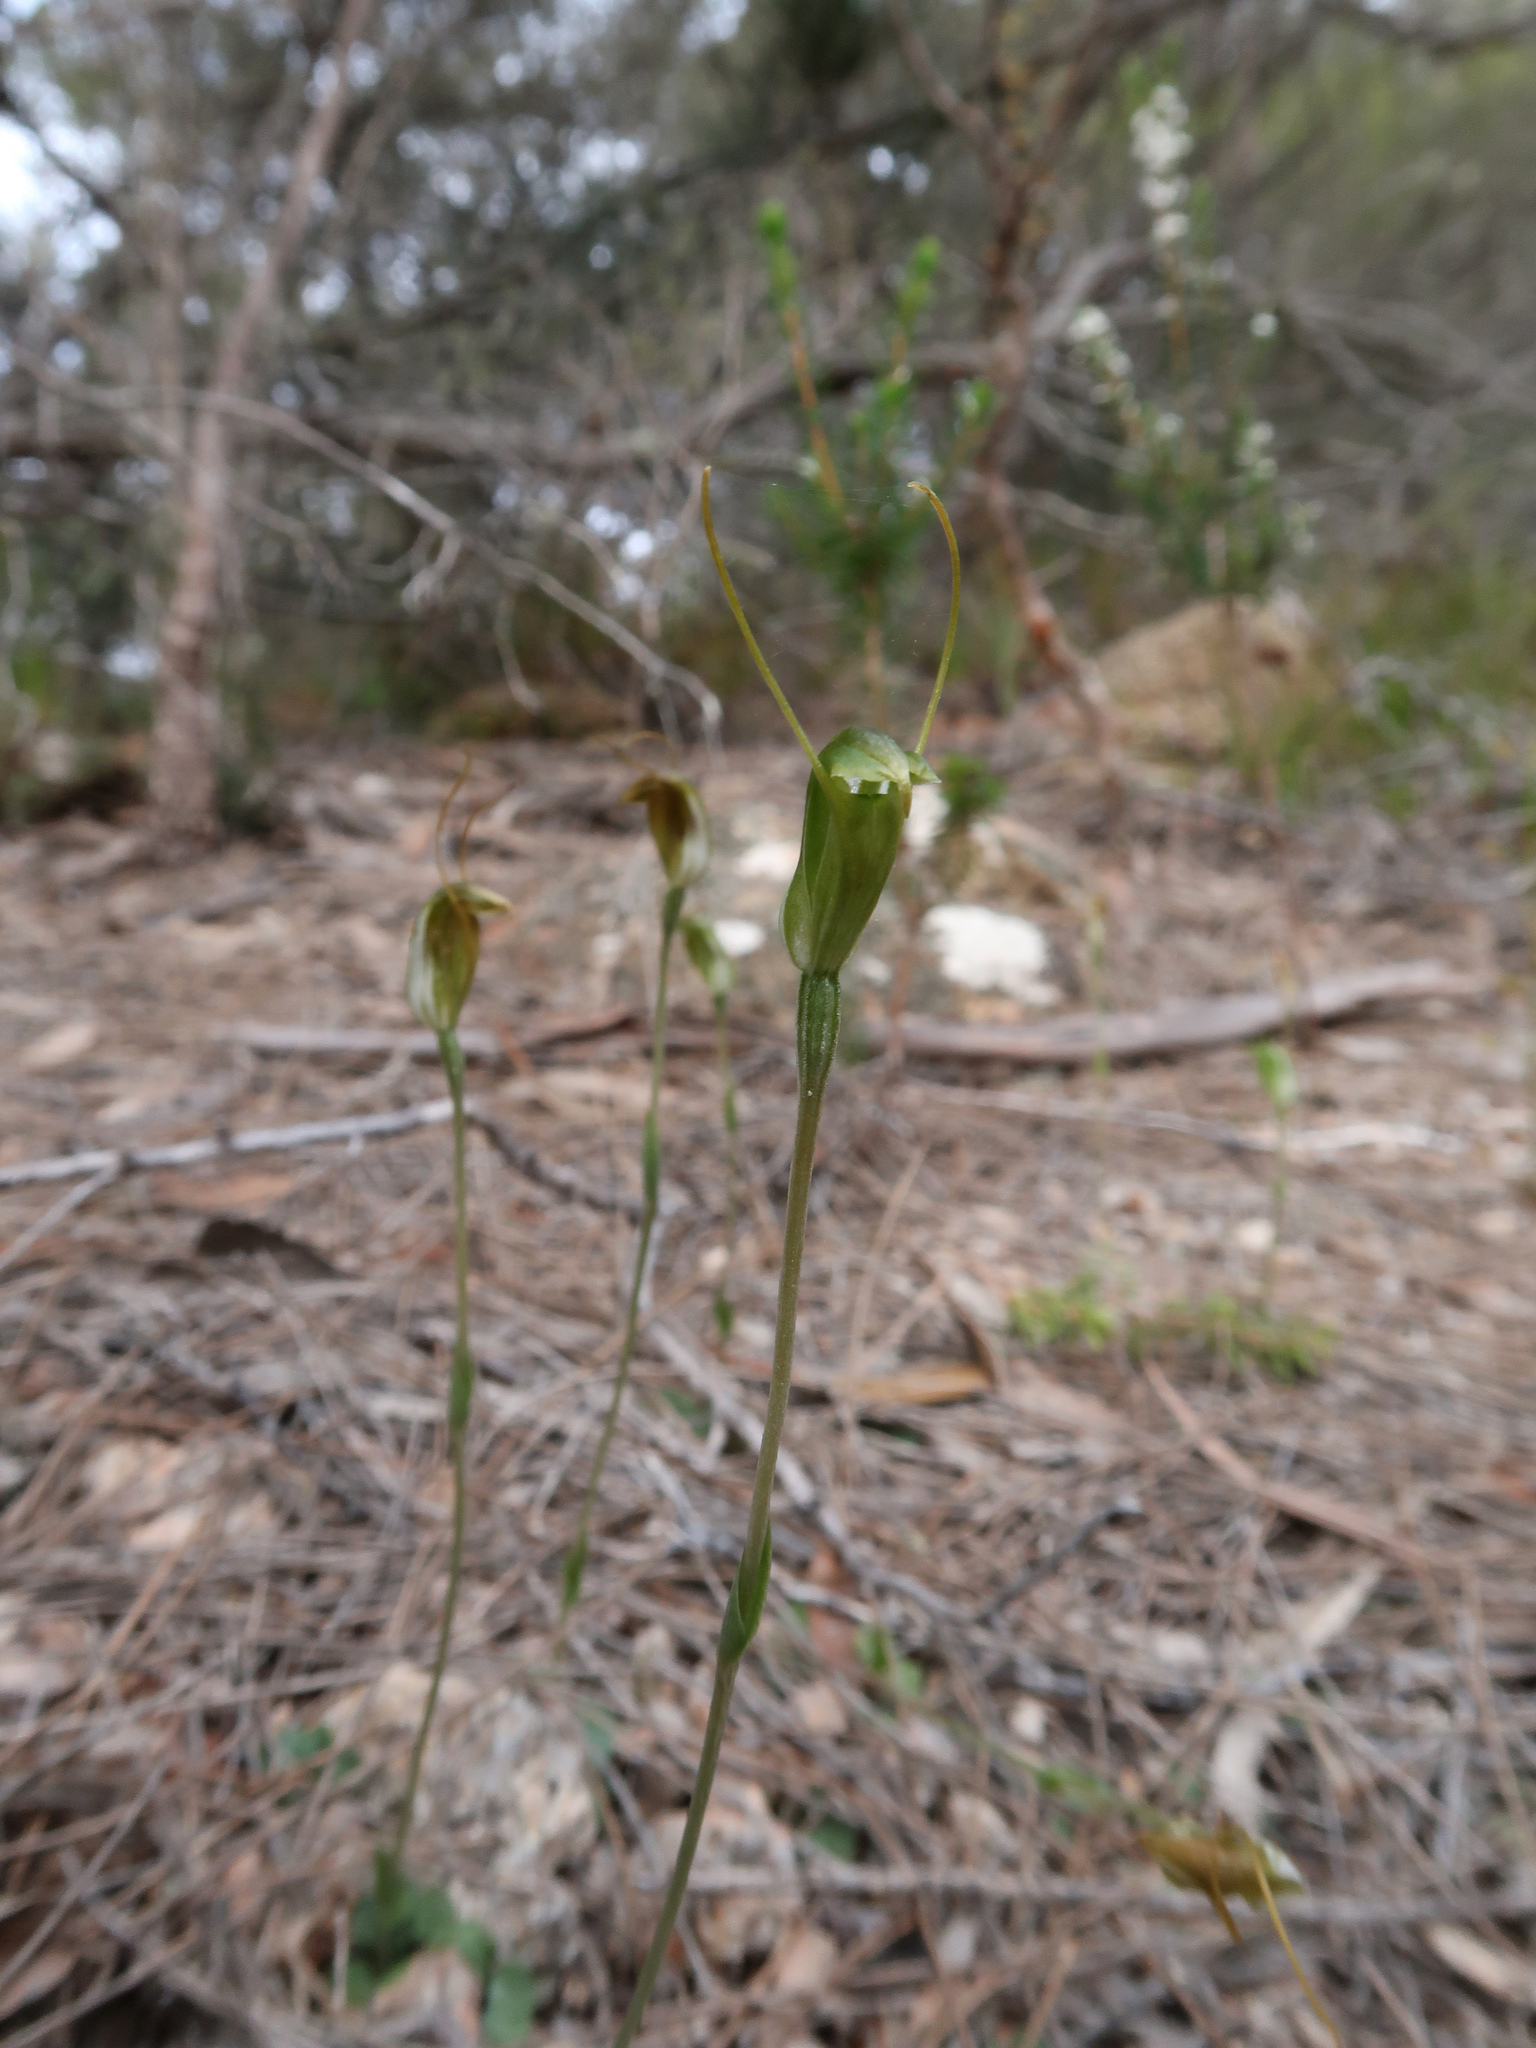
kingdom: Plantae
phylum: Tracheophyta
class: Liliopsida
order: Asparagales
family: Orchidaceae
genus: Pterostylis
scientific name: Pterostylis nana
